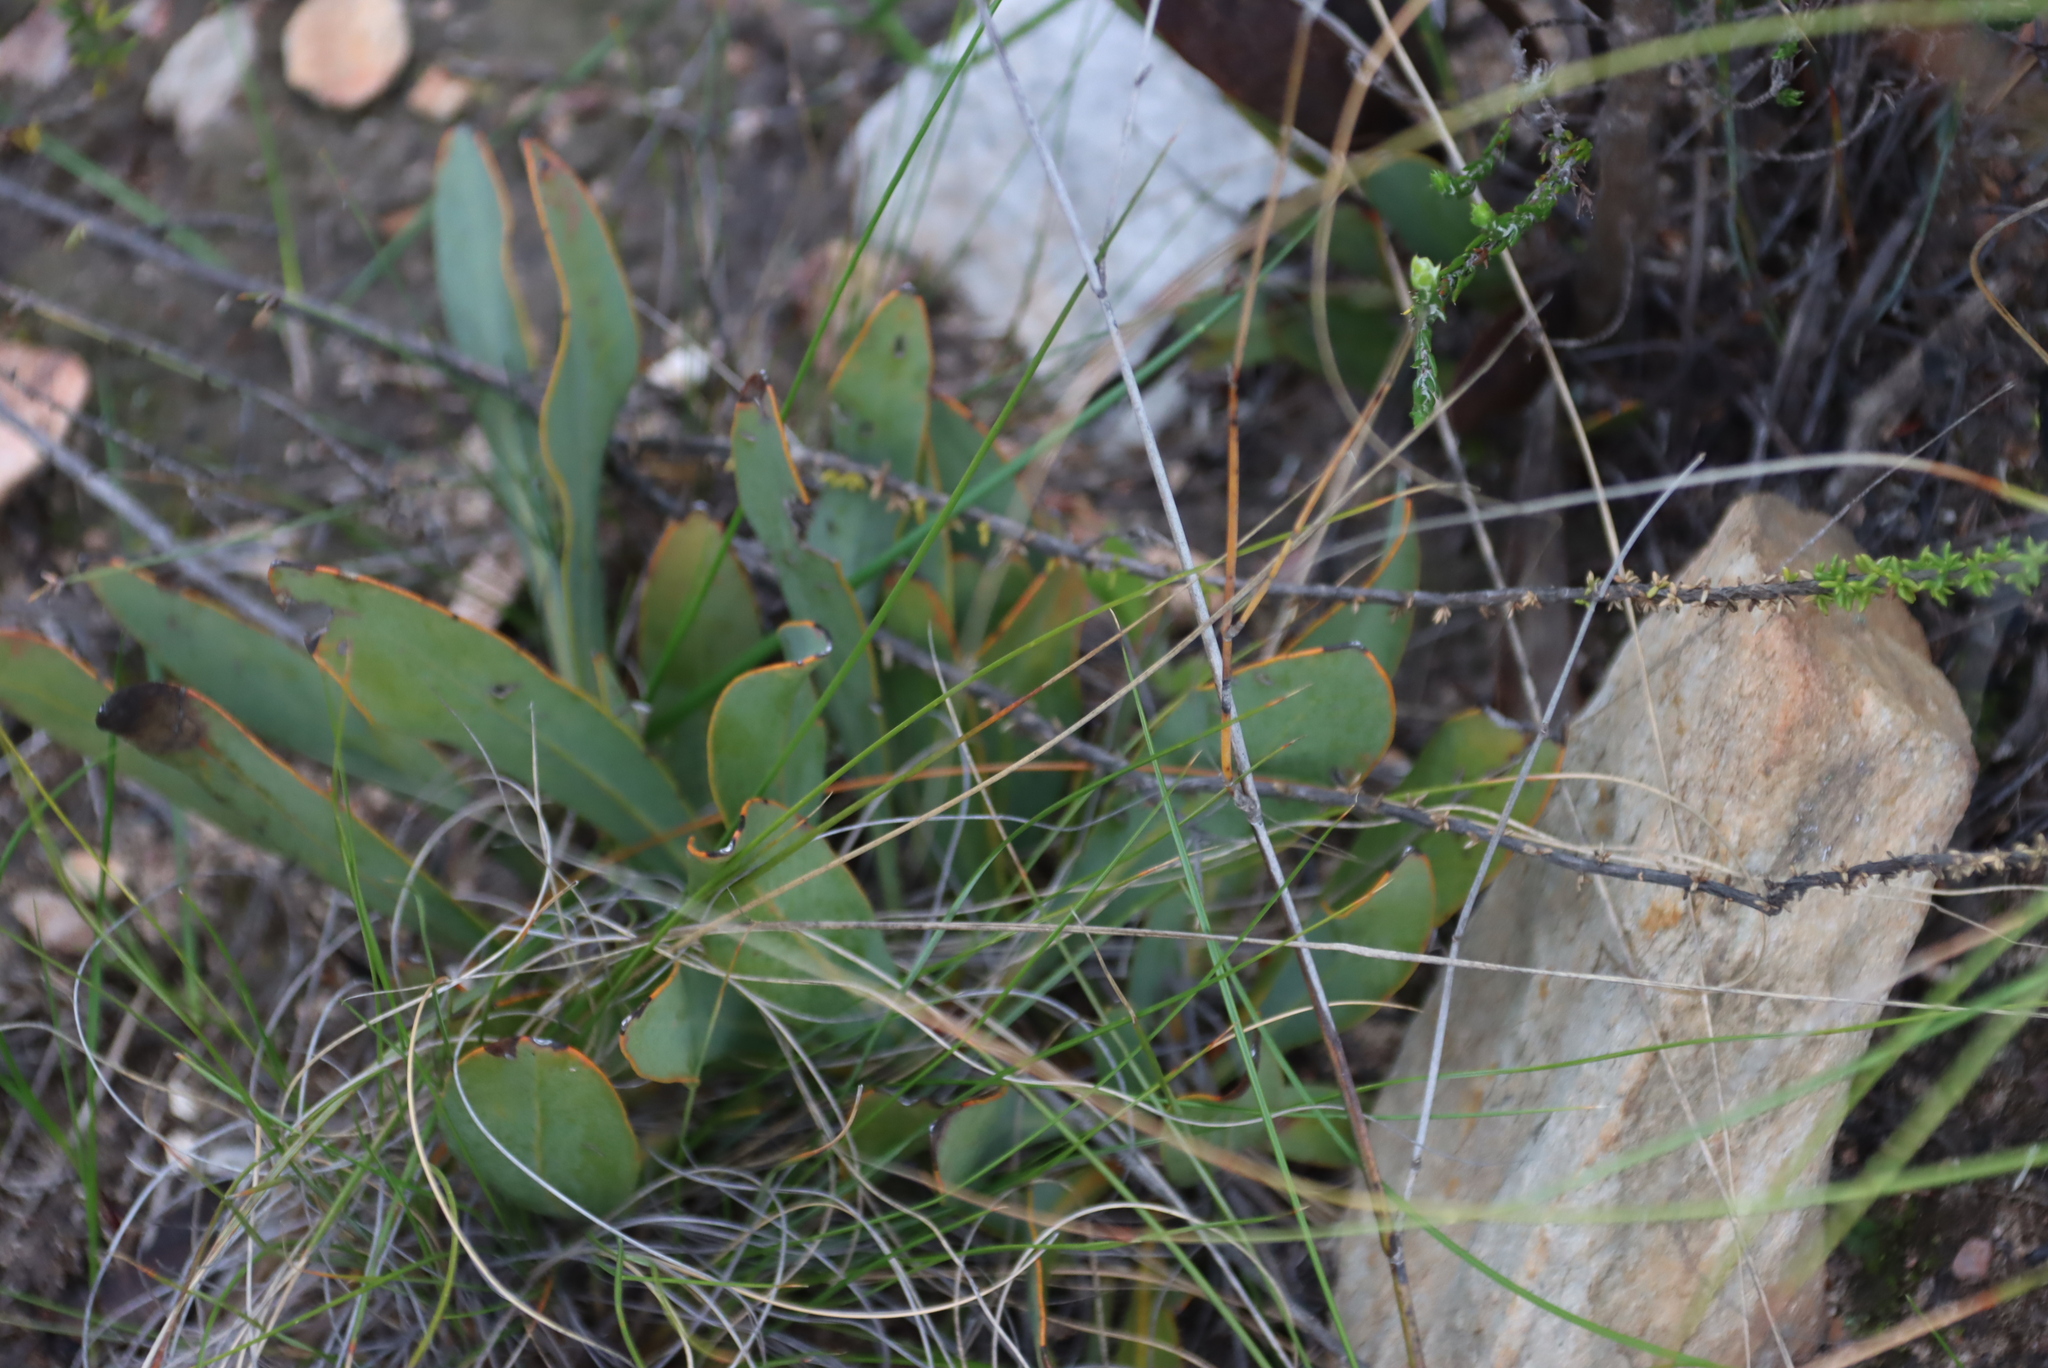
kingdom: Plantae
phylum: Tracheophyta
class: Magnoliopsida
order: Proteales
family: Proteaceae
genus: Protea
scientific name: Protea vogtsiae
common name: Kouga sugarbush
